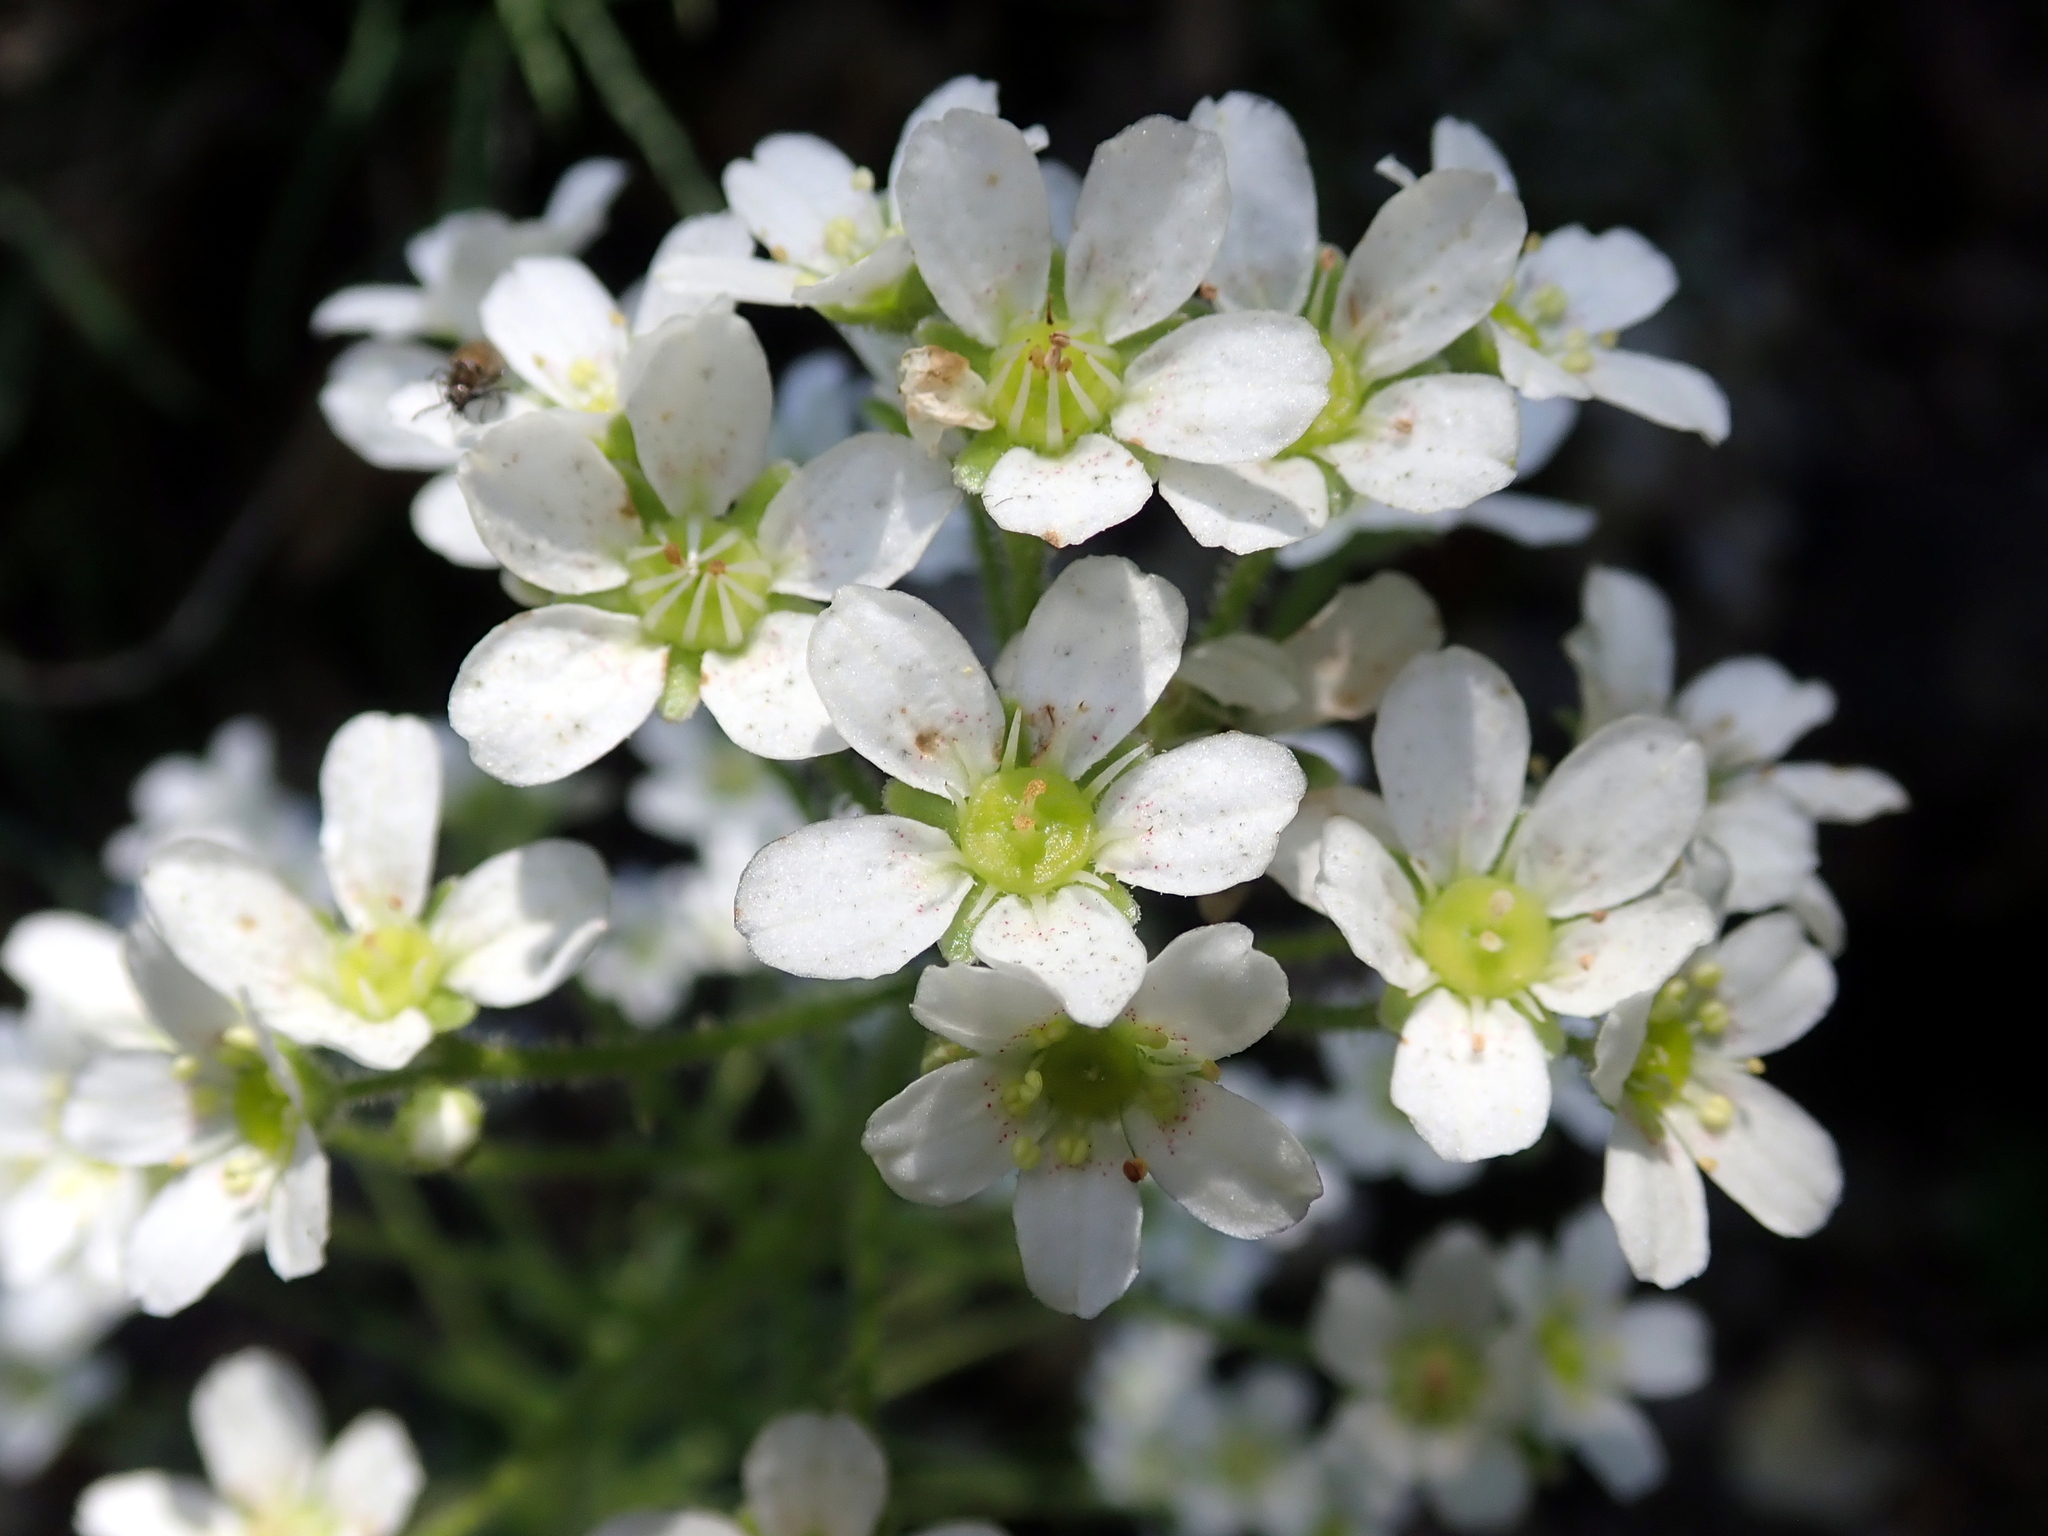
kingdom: Plantae
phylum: Tracheophyta
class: Magnoliopsida
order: Saxifragales
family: Saxifragaceae
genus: Saxifraga
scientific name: Saxifraga longifolia
